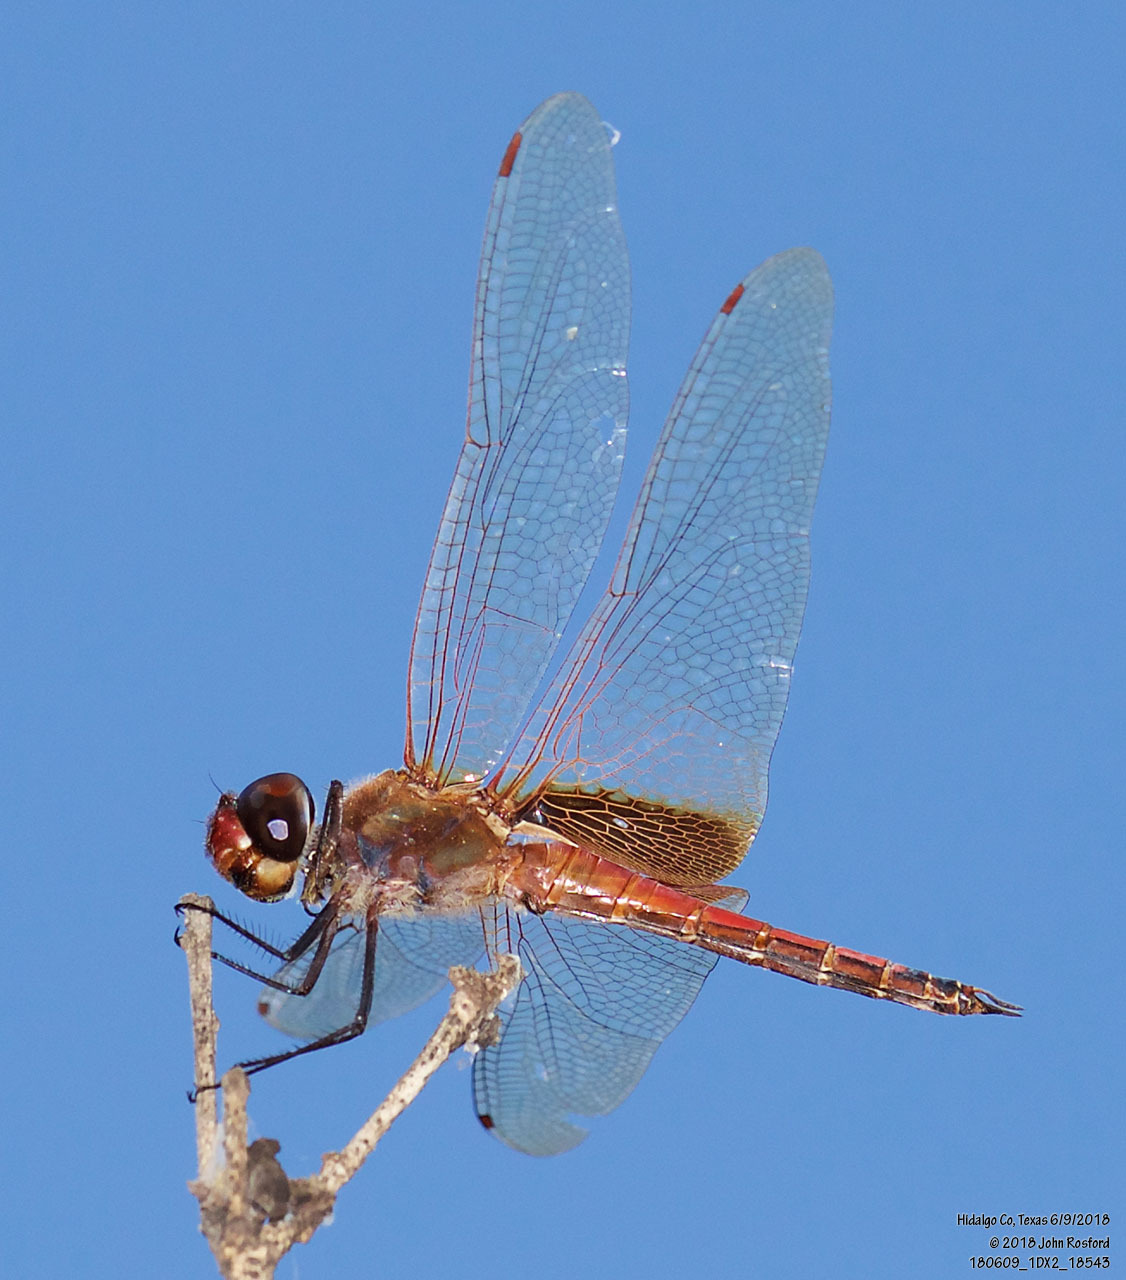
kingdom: Animalia
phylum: Arthropoda
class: Insecta
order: Odonata
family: Libellulidae
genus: Tramea
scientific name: Tramea darwini
